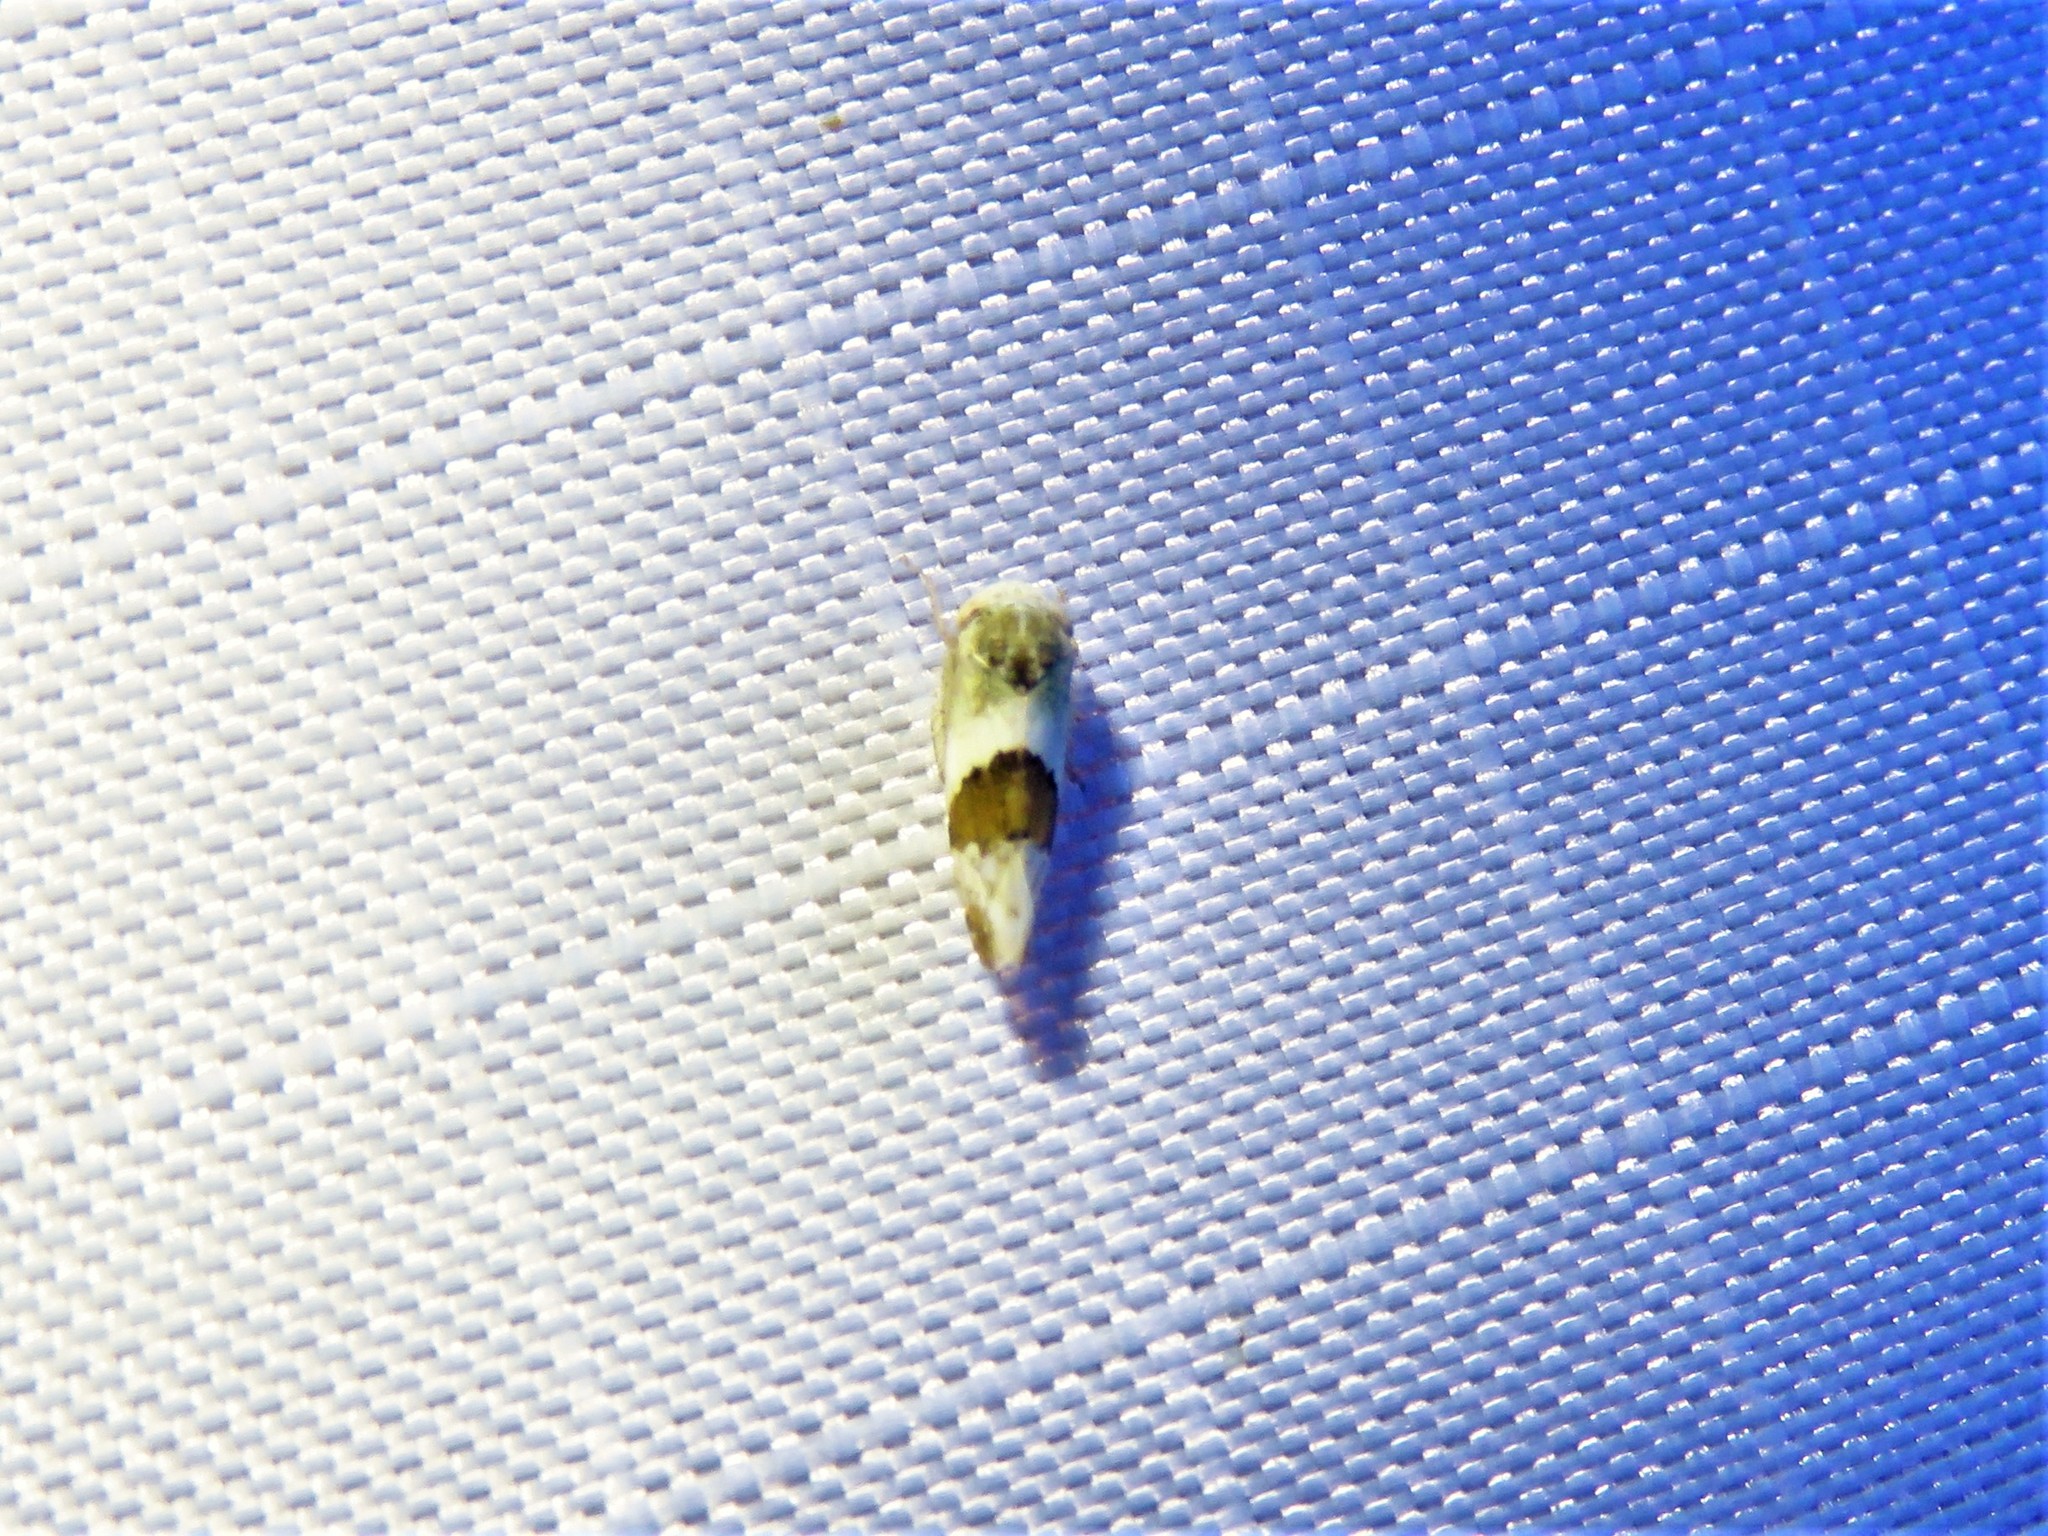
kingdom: Animalia
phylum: Arthropoda
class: Insecta
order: Hemiptera
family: Cicadellidae
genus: Norvellina
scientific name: Norvellina seminuda
